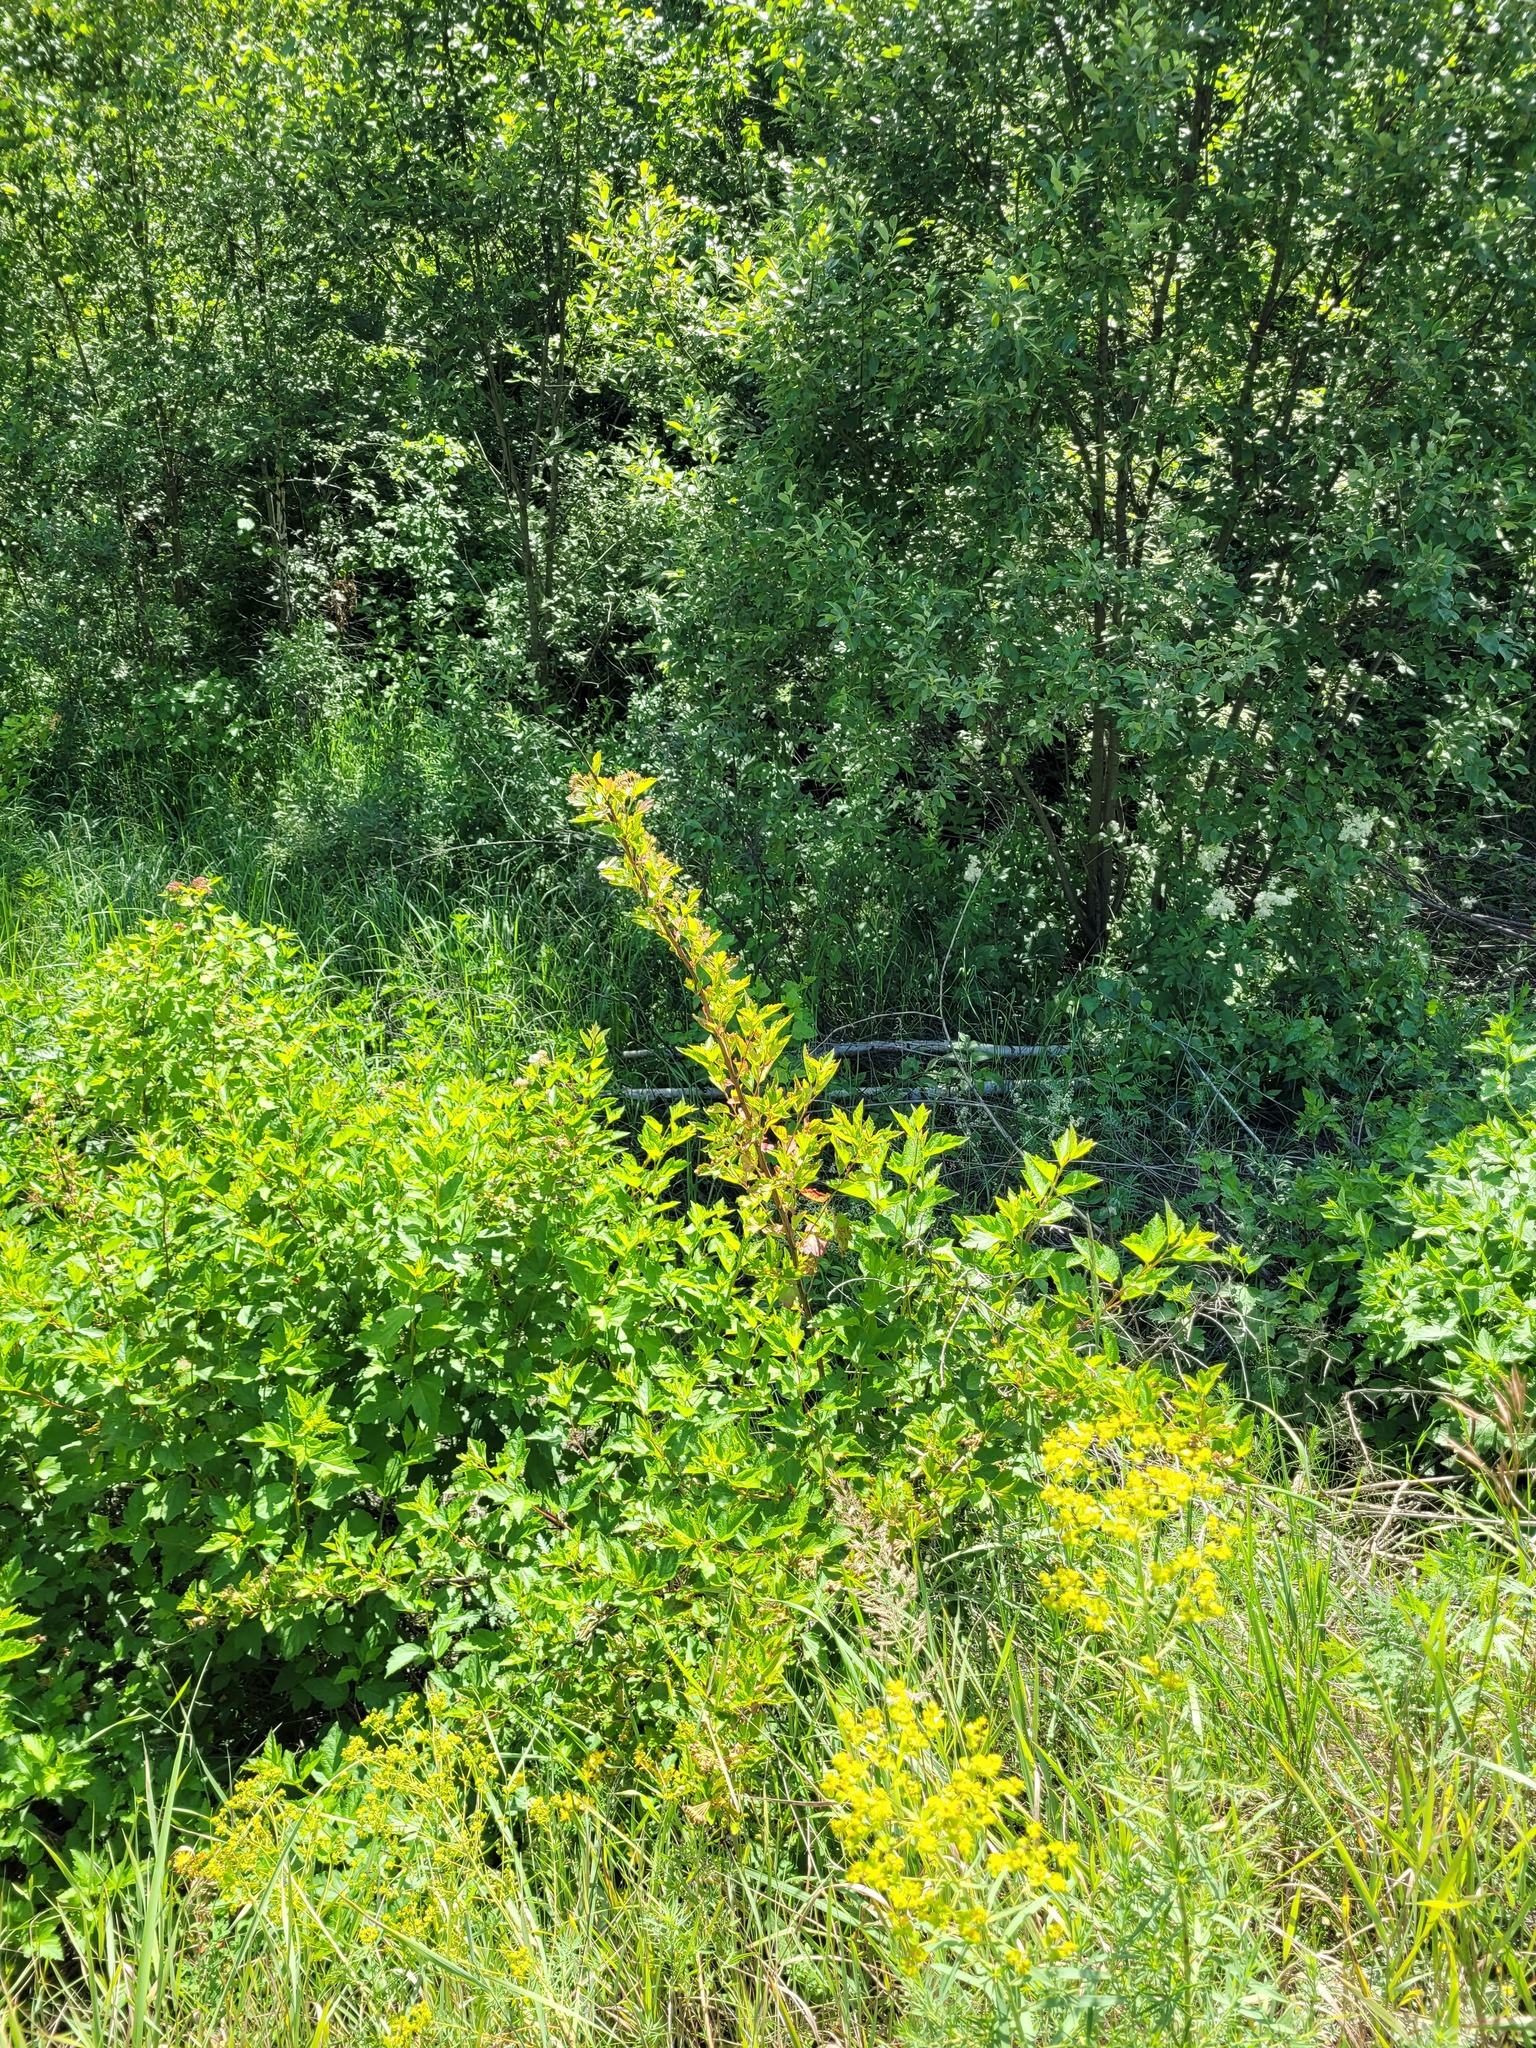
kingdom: Plantae
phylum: Tracheophyta
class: Magnoliopsida
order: Rosales
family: Rosaceae
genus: Physocarpus
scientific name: Physocarpus opulifolius
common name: Ninebark
